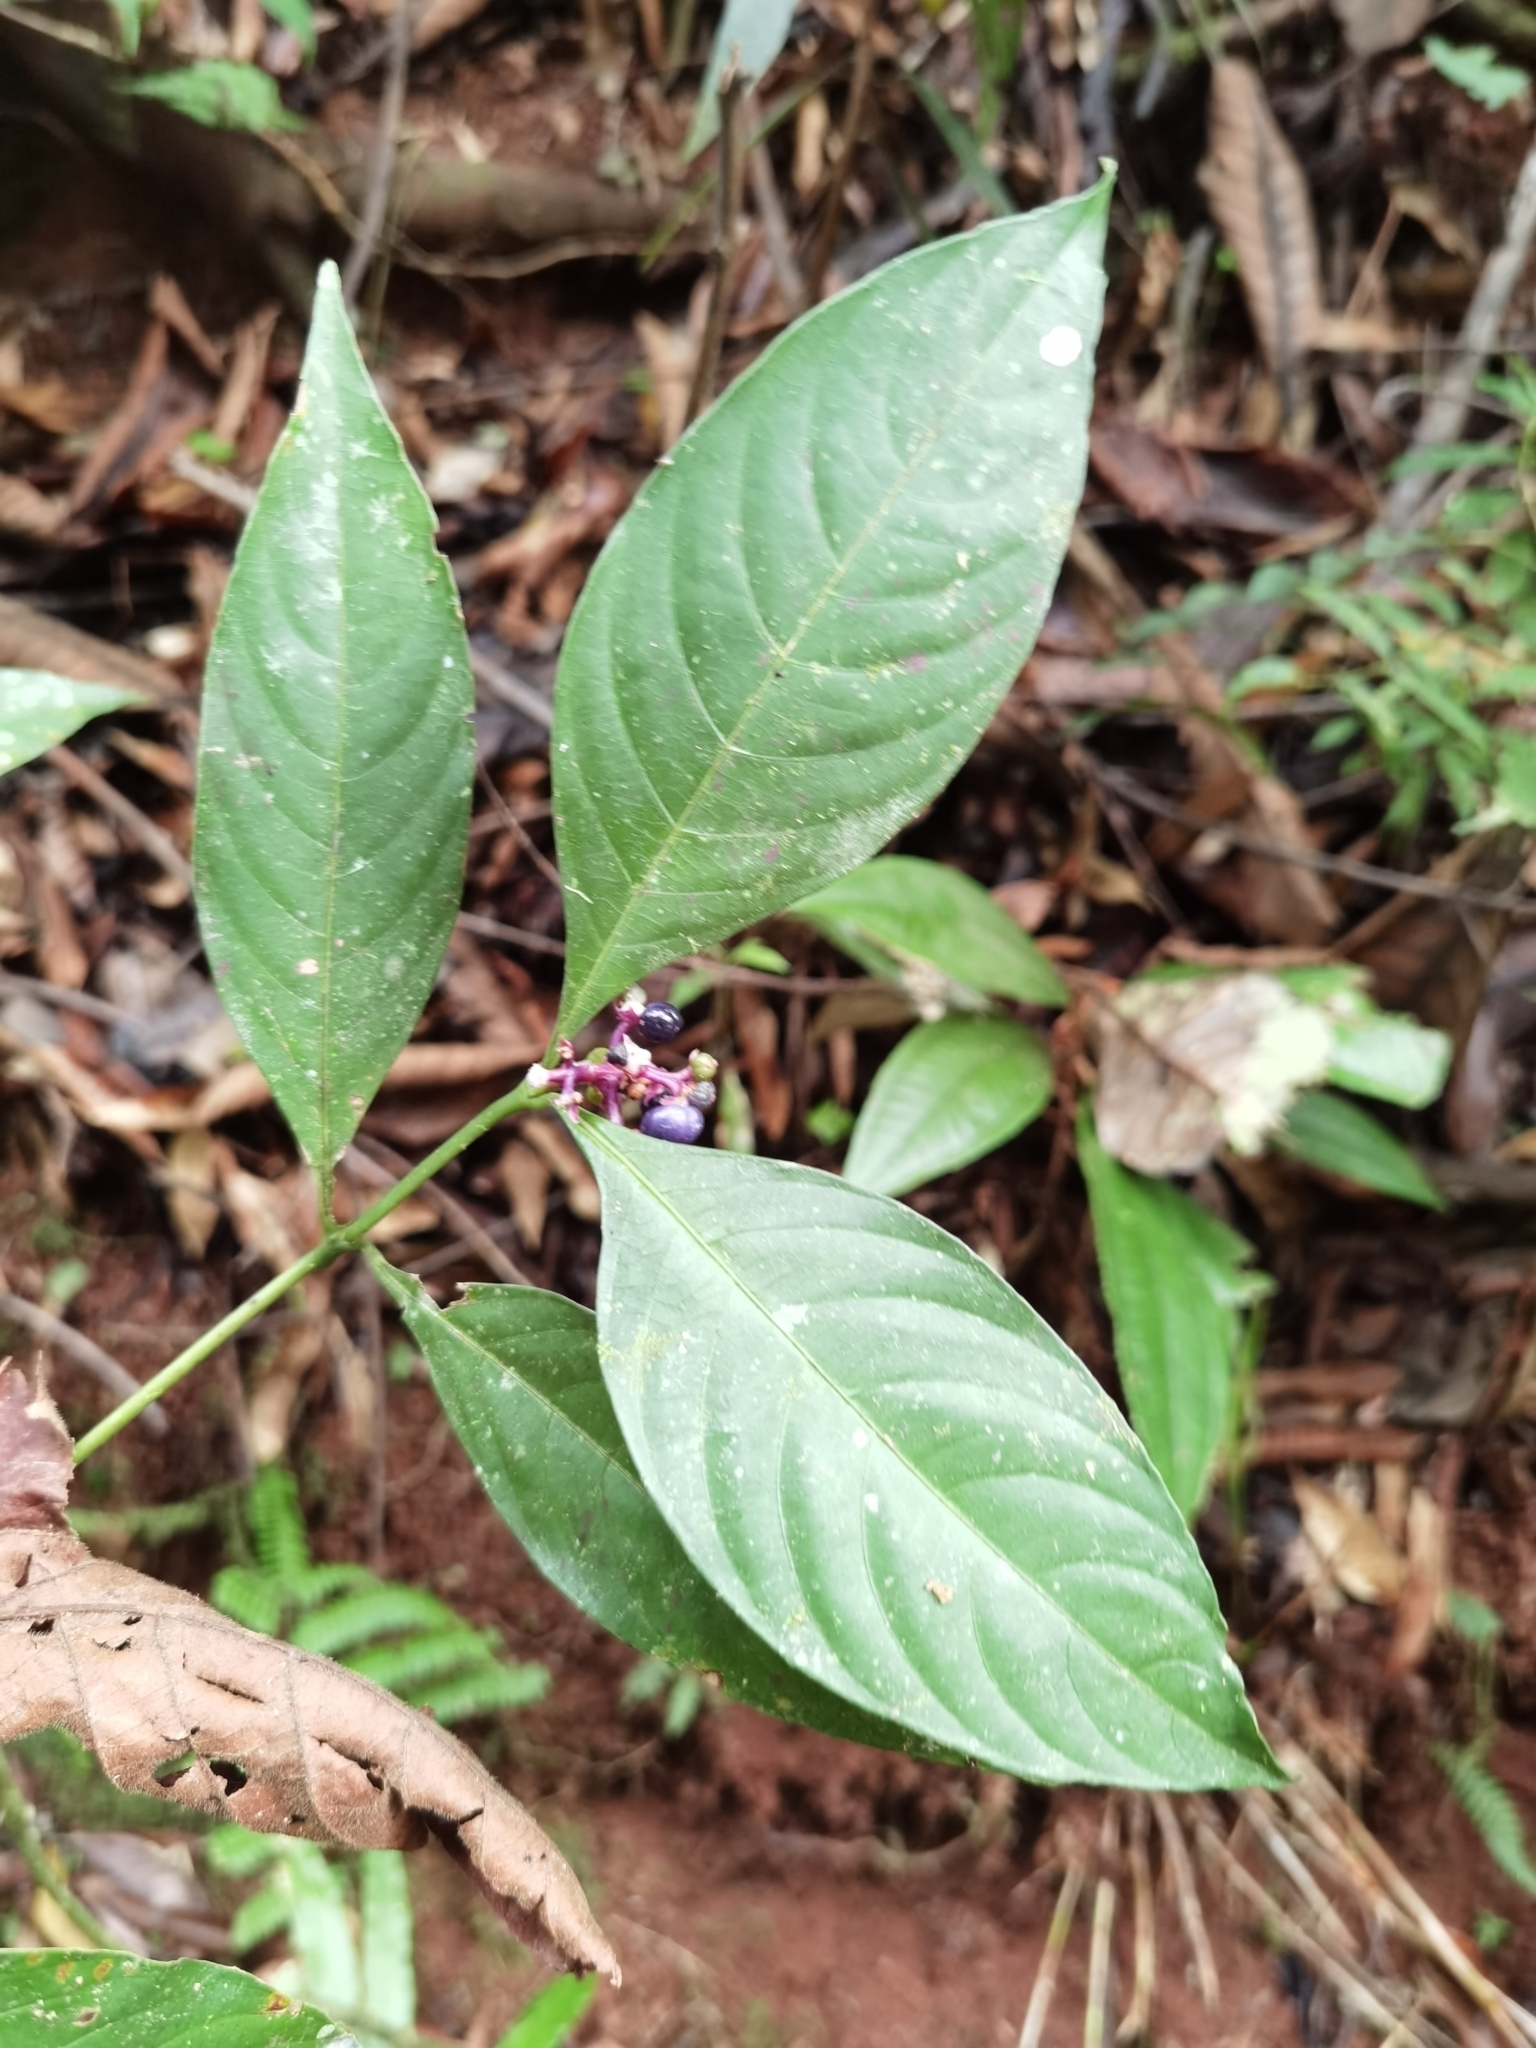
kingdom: Plantae
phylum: Tracheophyta
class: Magnoliopsida
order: Gentianales
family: Rubiaceae
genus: Palicourea
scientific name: Palicourea gracilenta
